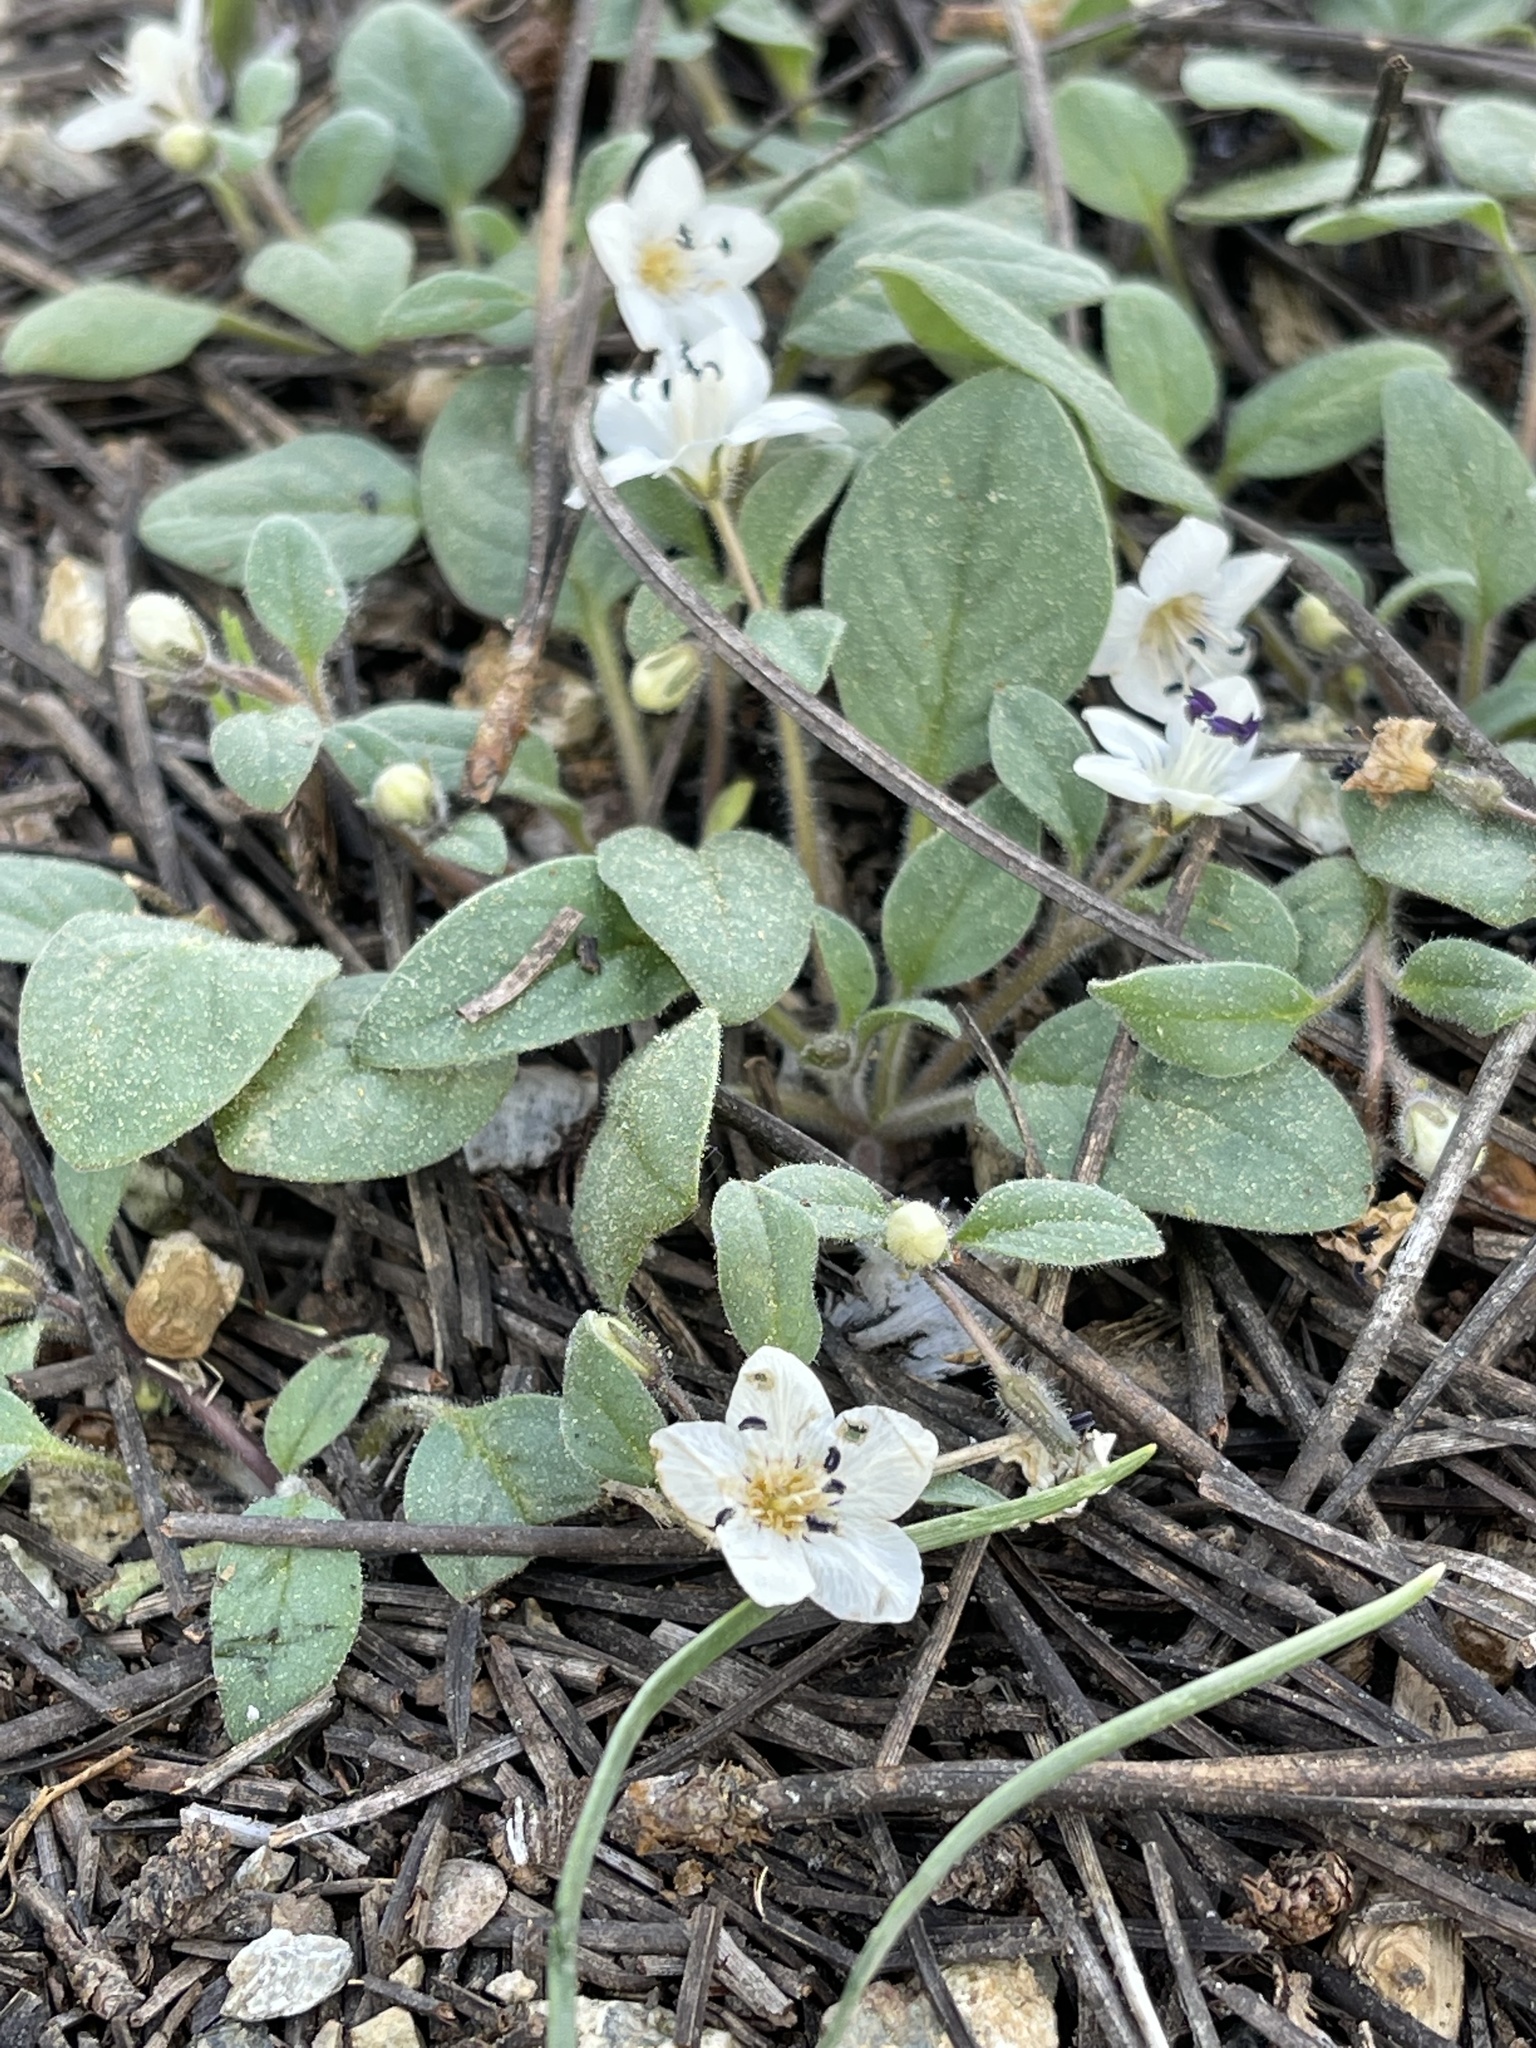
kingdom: Plantae
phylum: Tracheophyta
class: Magnoliopsida
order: Boraginales
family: Hydrophyllaceae
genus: Howellanthus
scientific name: Howellanthus dalesianus
